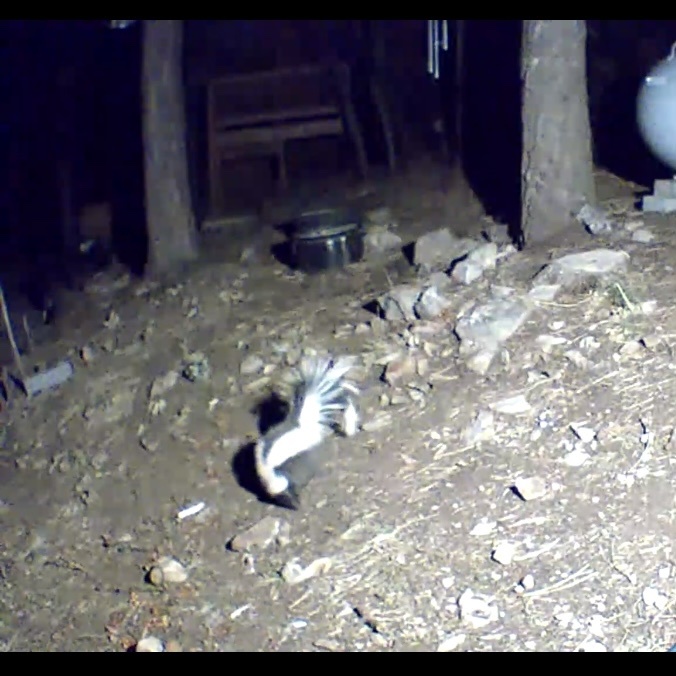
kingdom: Animalia
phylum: Chordata
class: Mammalia
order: Carnivora
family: Mephitidae
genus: Mephitis
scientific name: Mephitis mephitis
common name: Striped skunk
